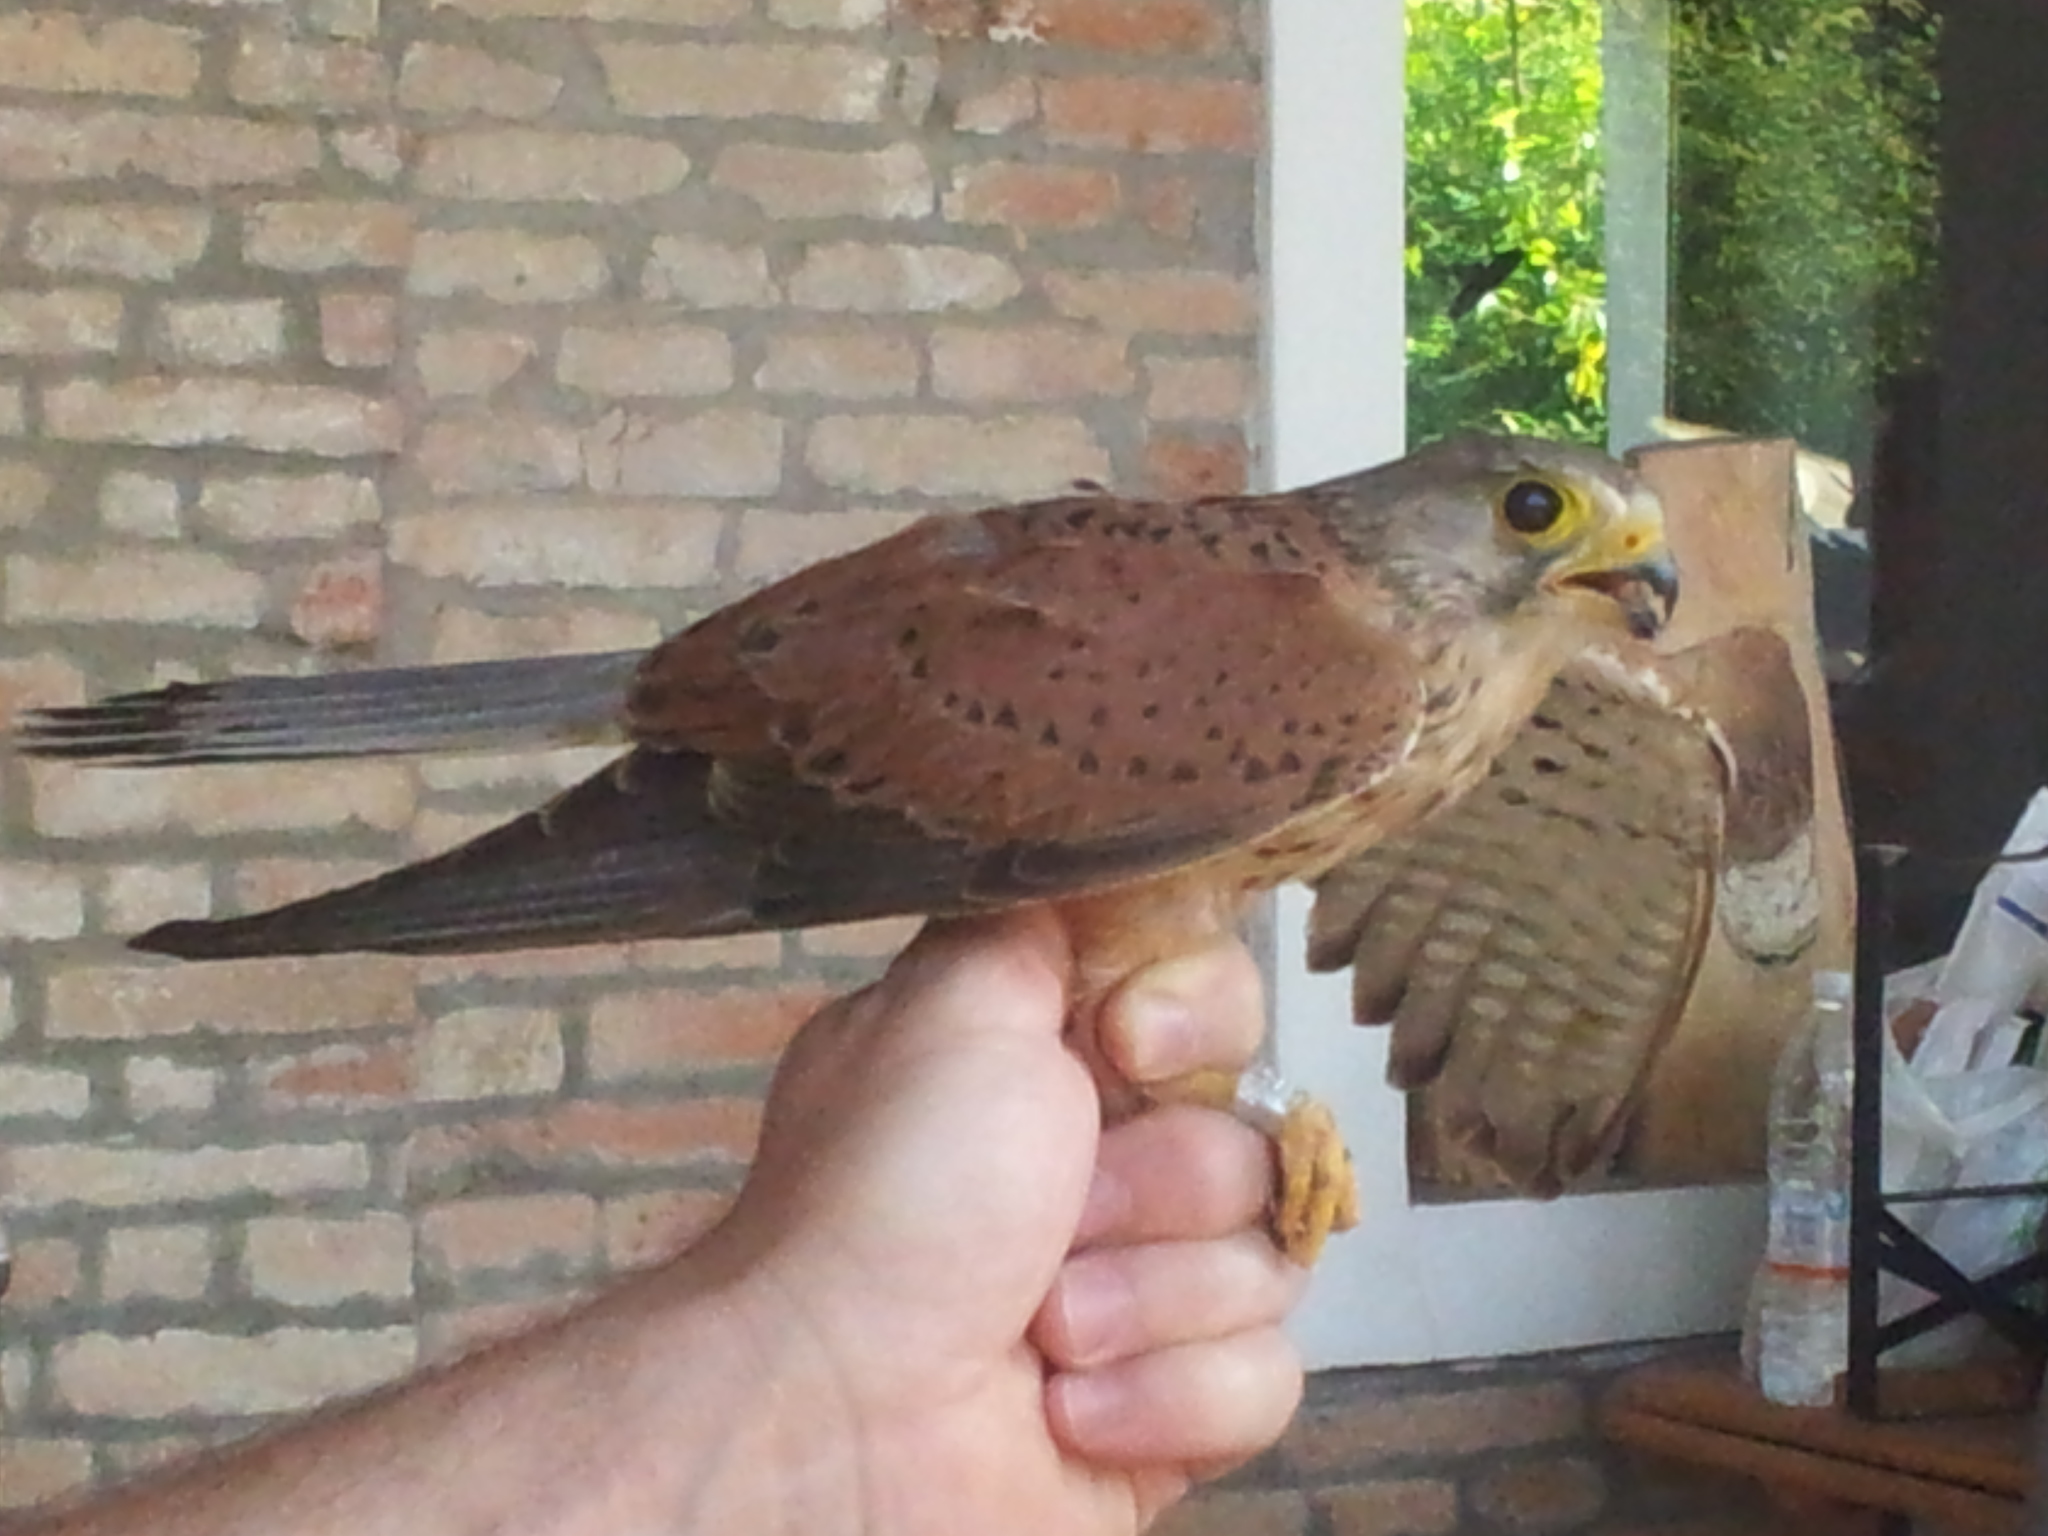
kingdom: Animalia
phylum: Chordata
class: Aves
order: Falconiformes
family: Falconidae
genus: Falco
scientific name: Falco tinnunculus
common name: Common kestrel
